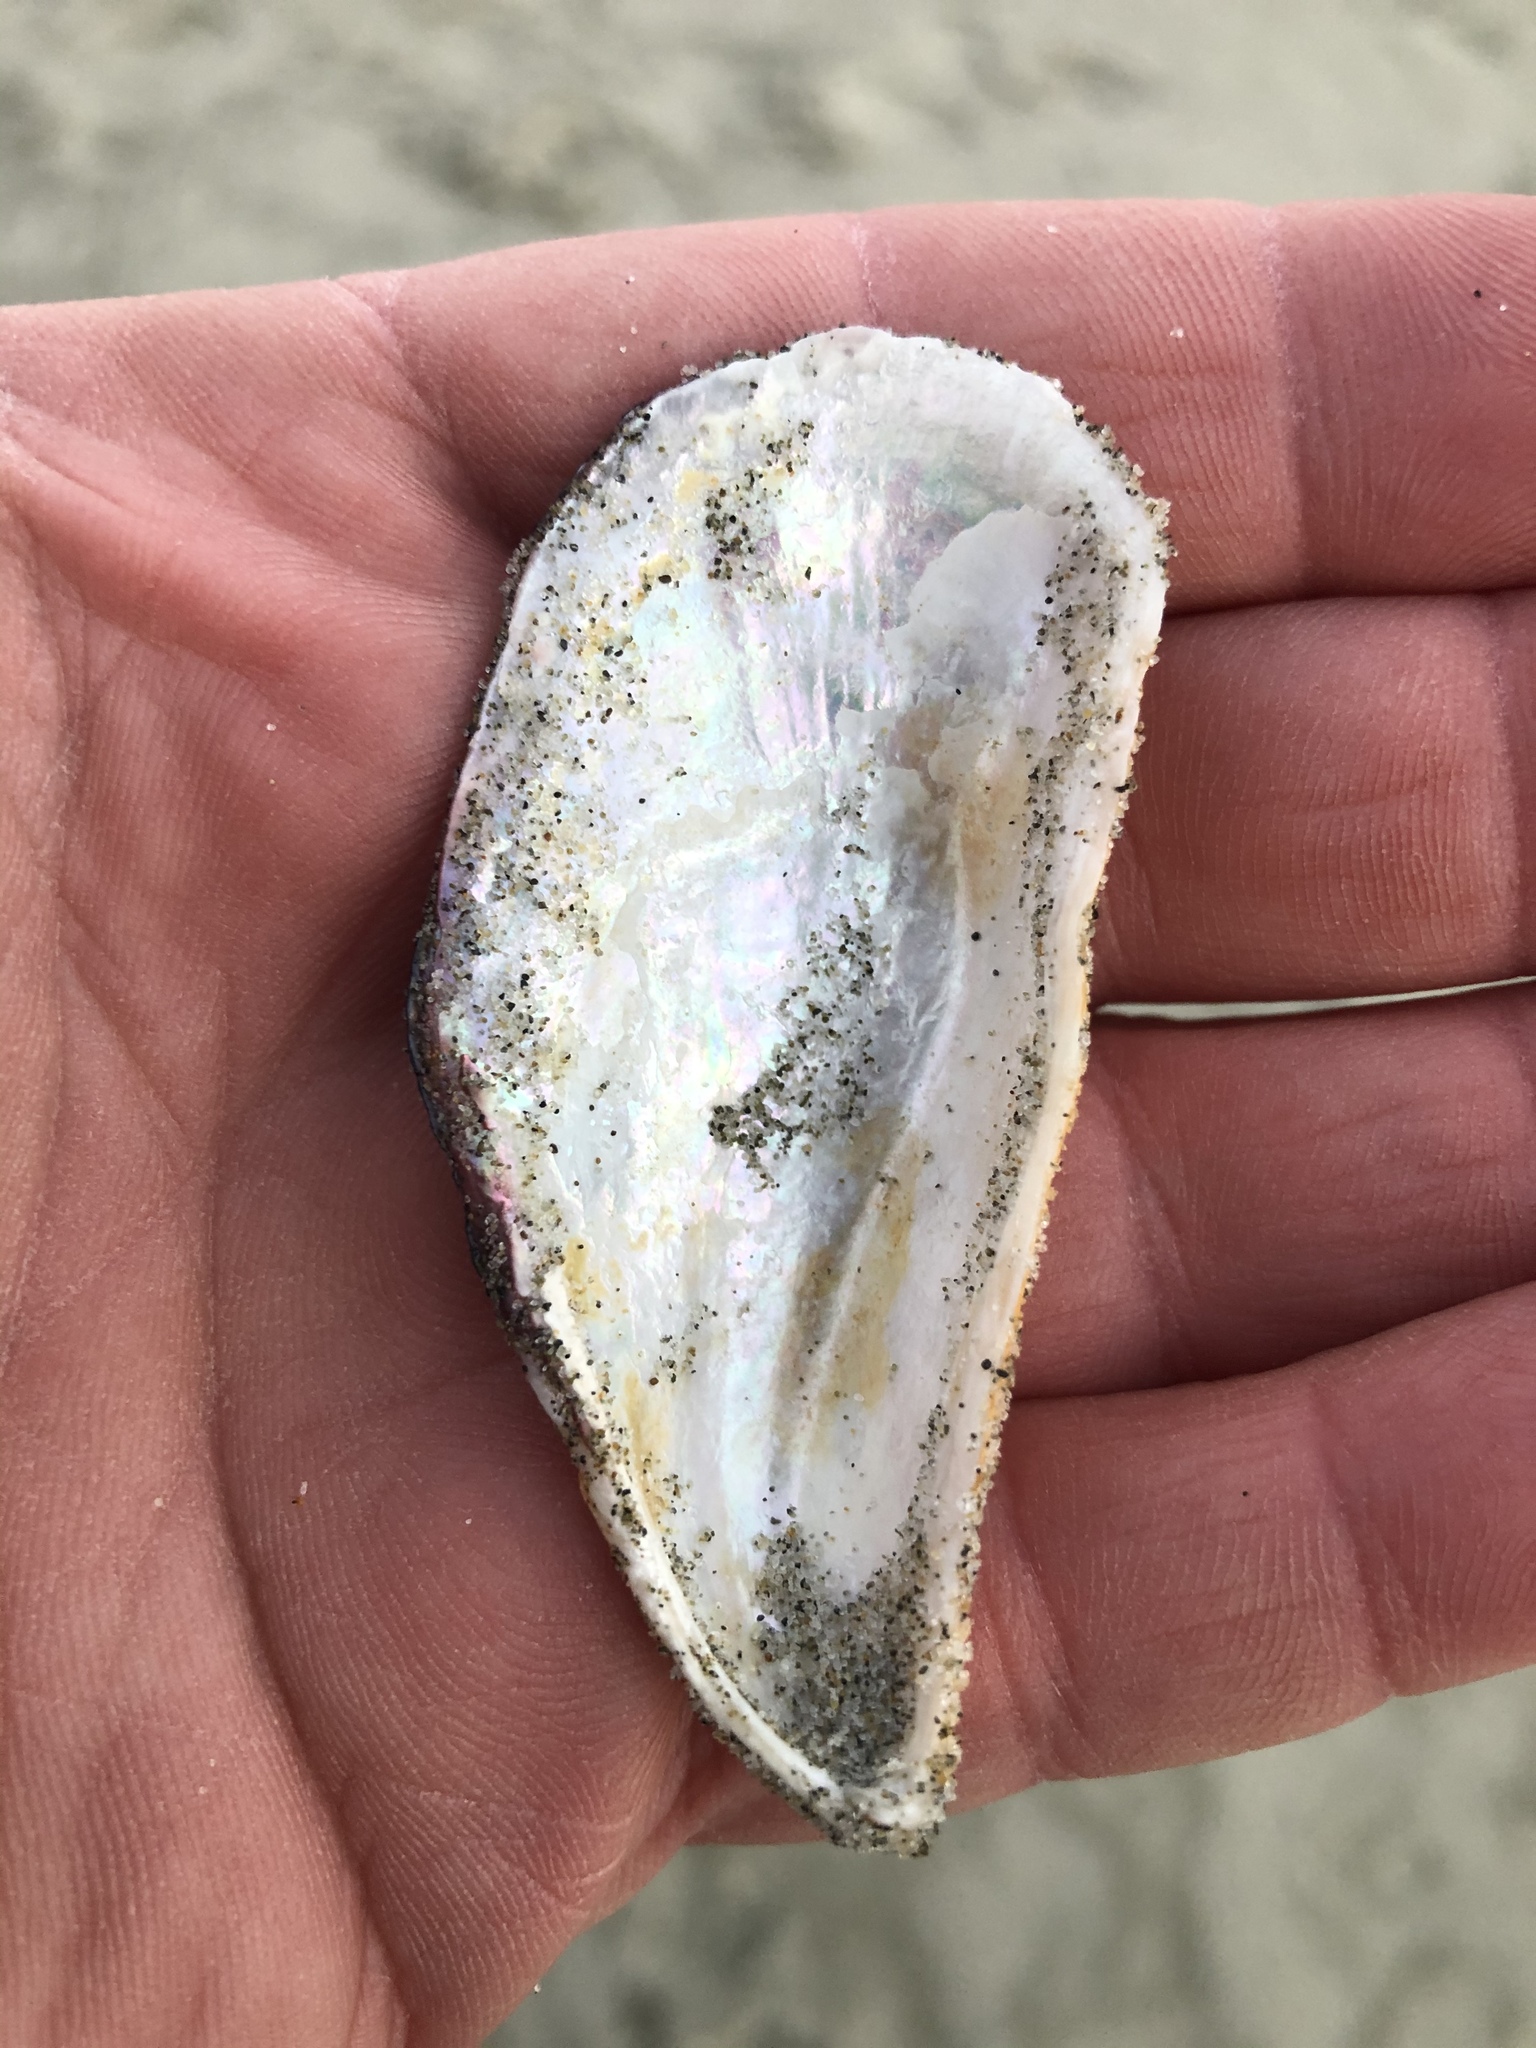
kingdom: Animalia
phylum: Mollusca
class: Bivalvia
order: Mytilida
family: Mytilidae
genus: Aulacomya
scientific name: Aulacomya maoriana
